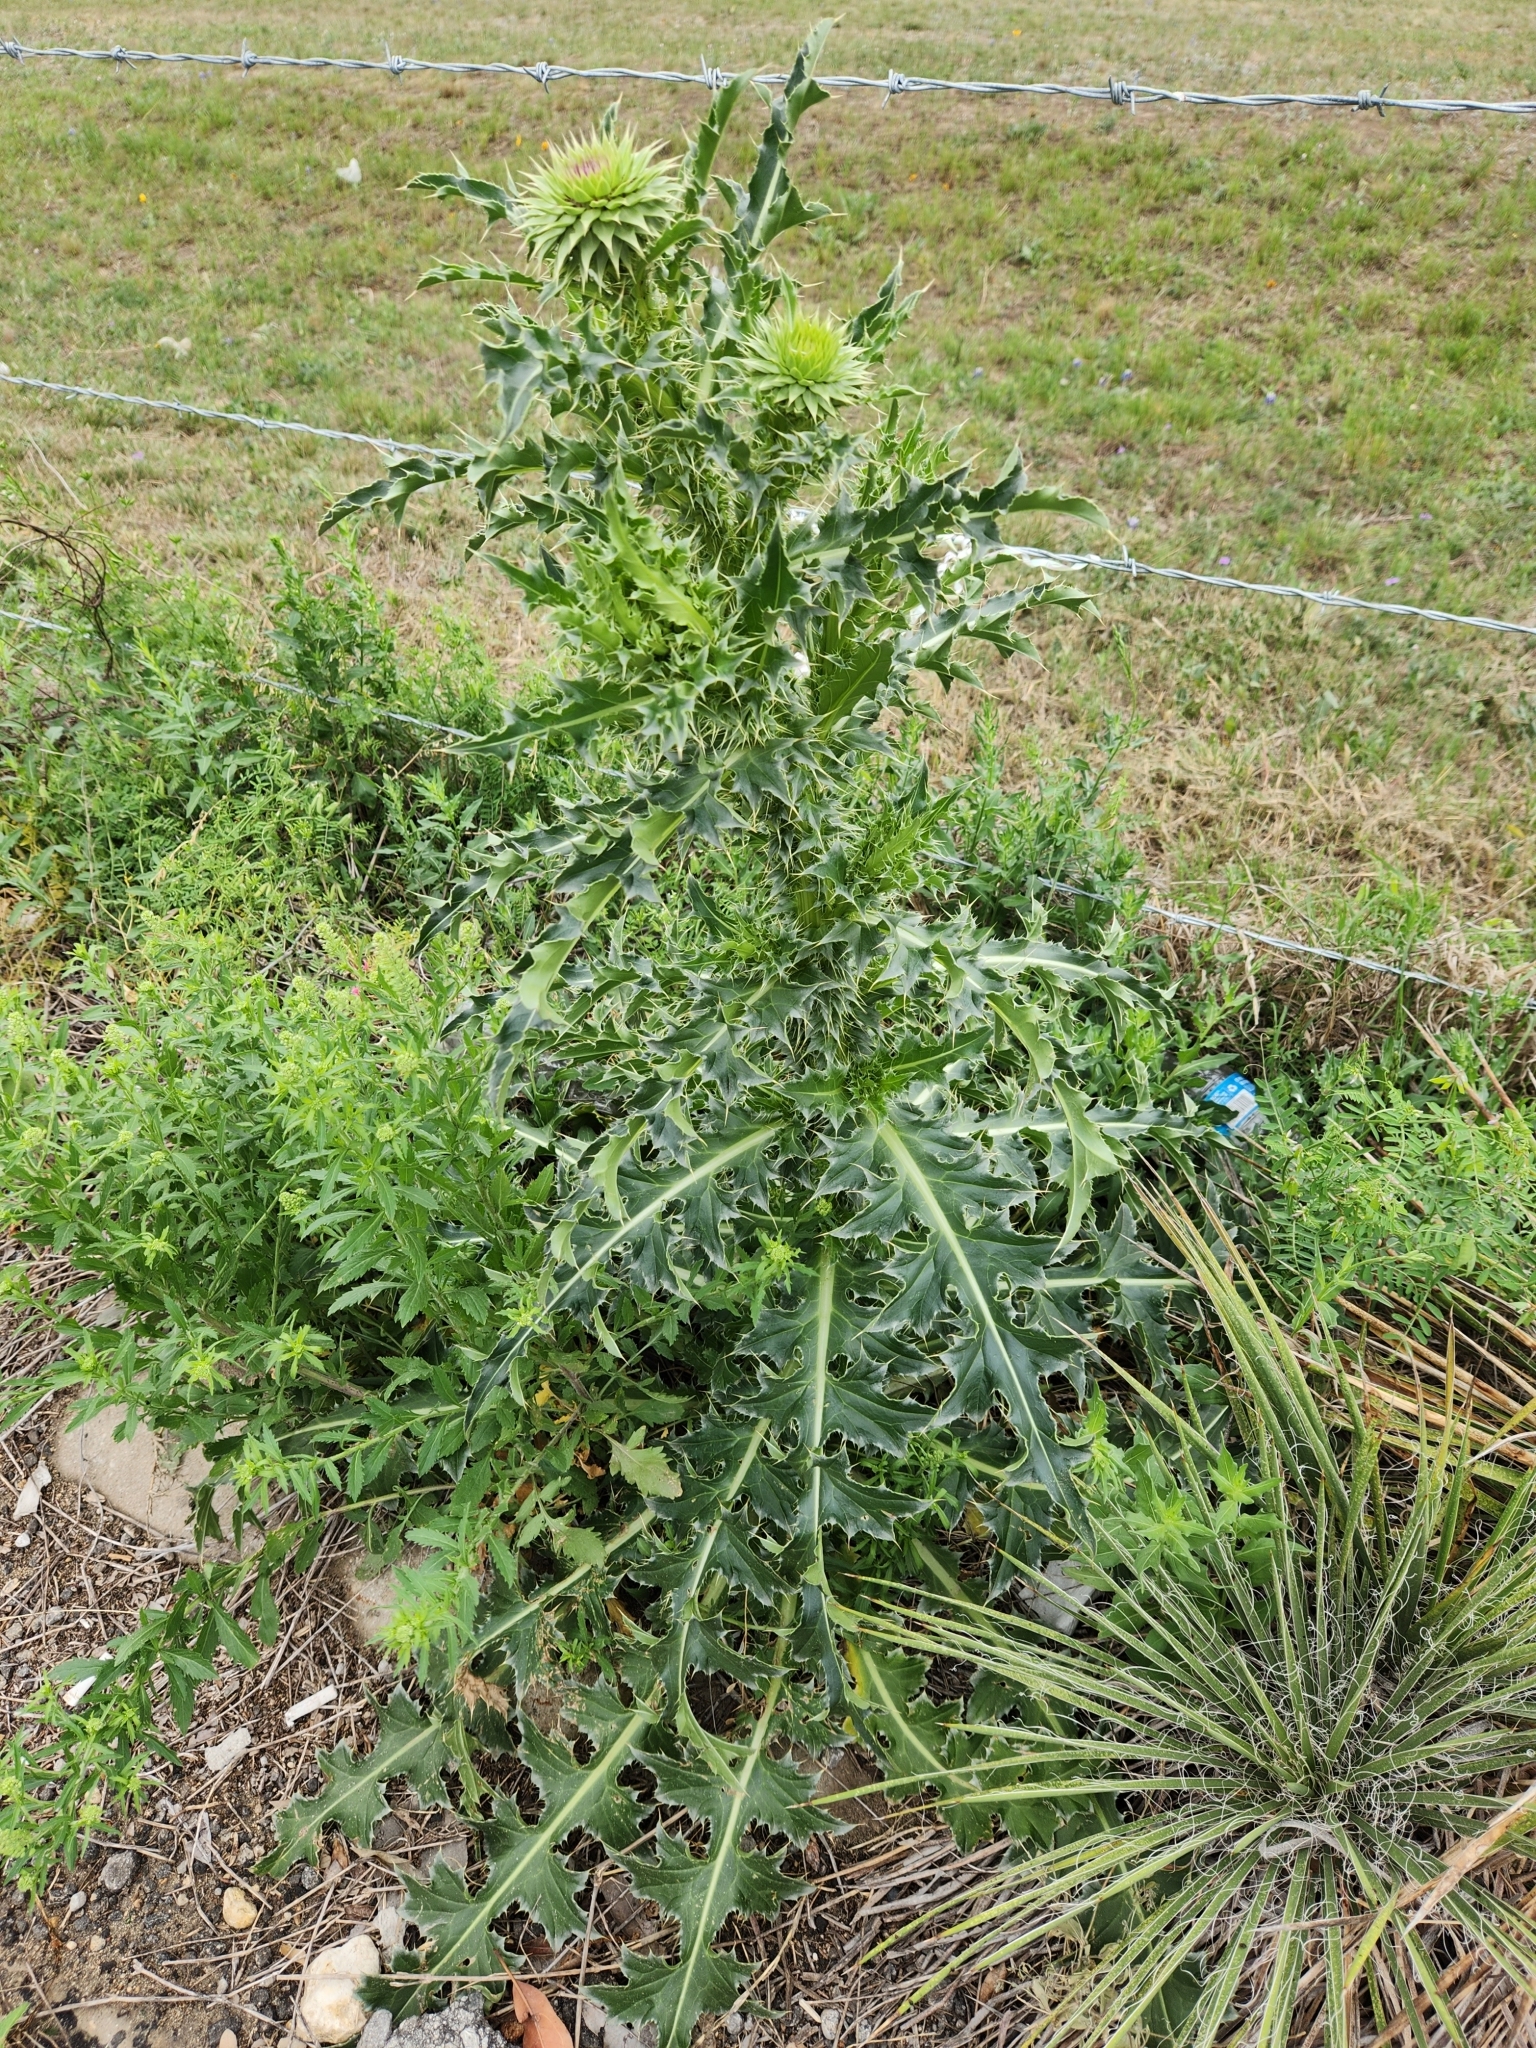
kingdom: Plantae
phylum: Tracheophyta
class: Magnoliopsida
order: Asterales
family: Asteraceae
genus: Carduus
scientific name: Carduus nutans
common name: Musk thistle
